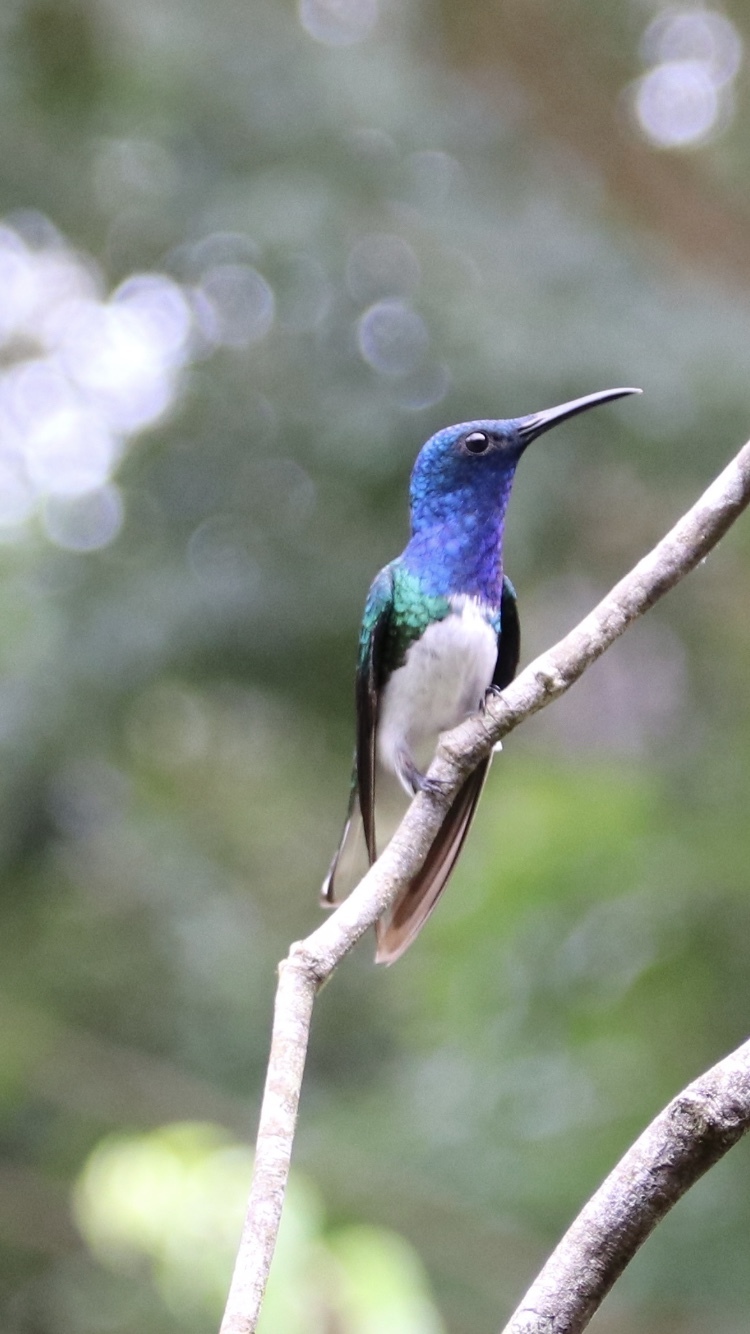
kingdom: Animalia
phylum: Chordata
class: Aves
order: Apodiformes
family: Trochilidae
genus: Florisuga
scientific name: Florisuga mellivora
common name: White-necked jacobin
